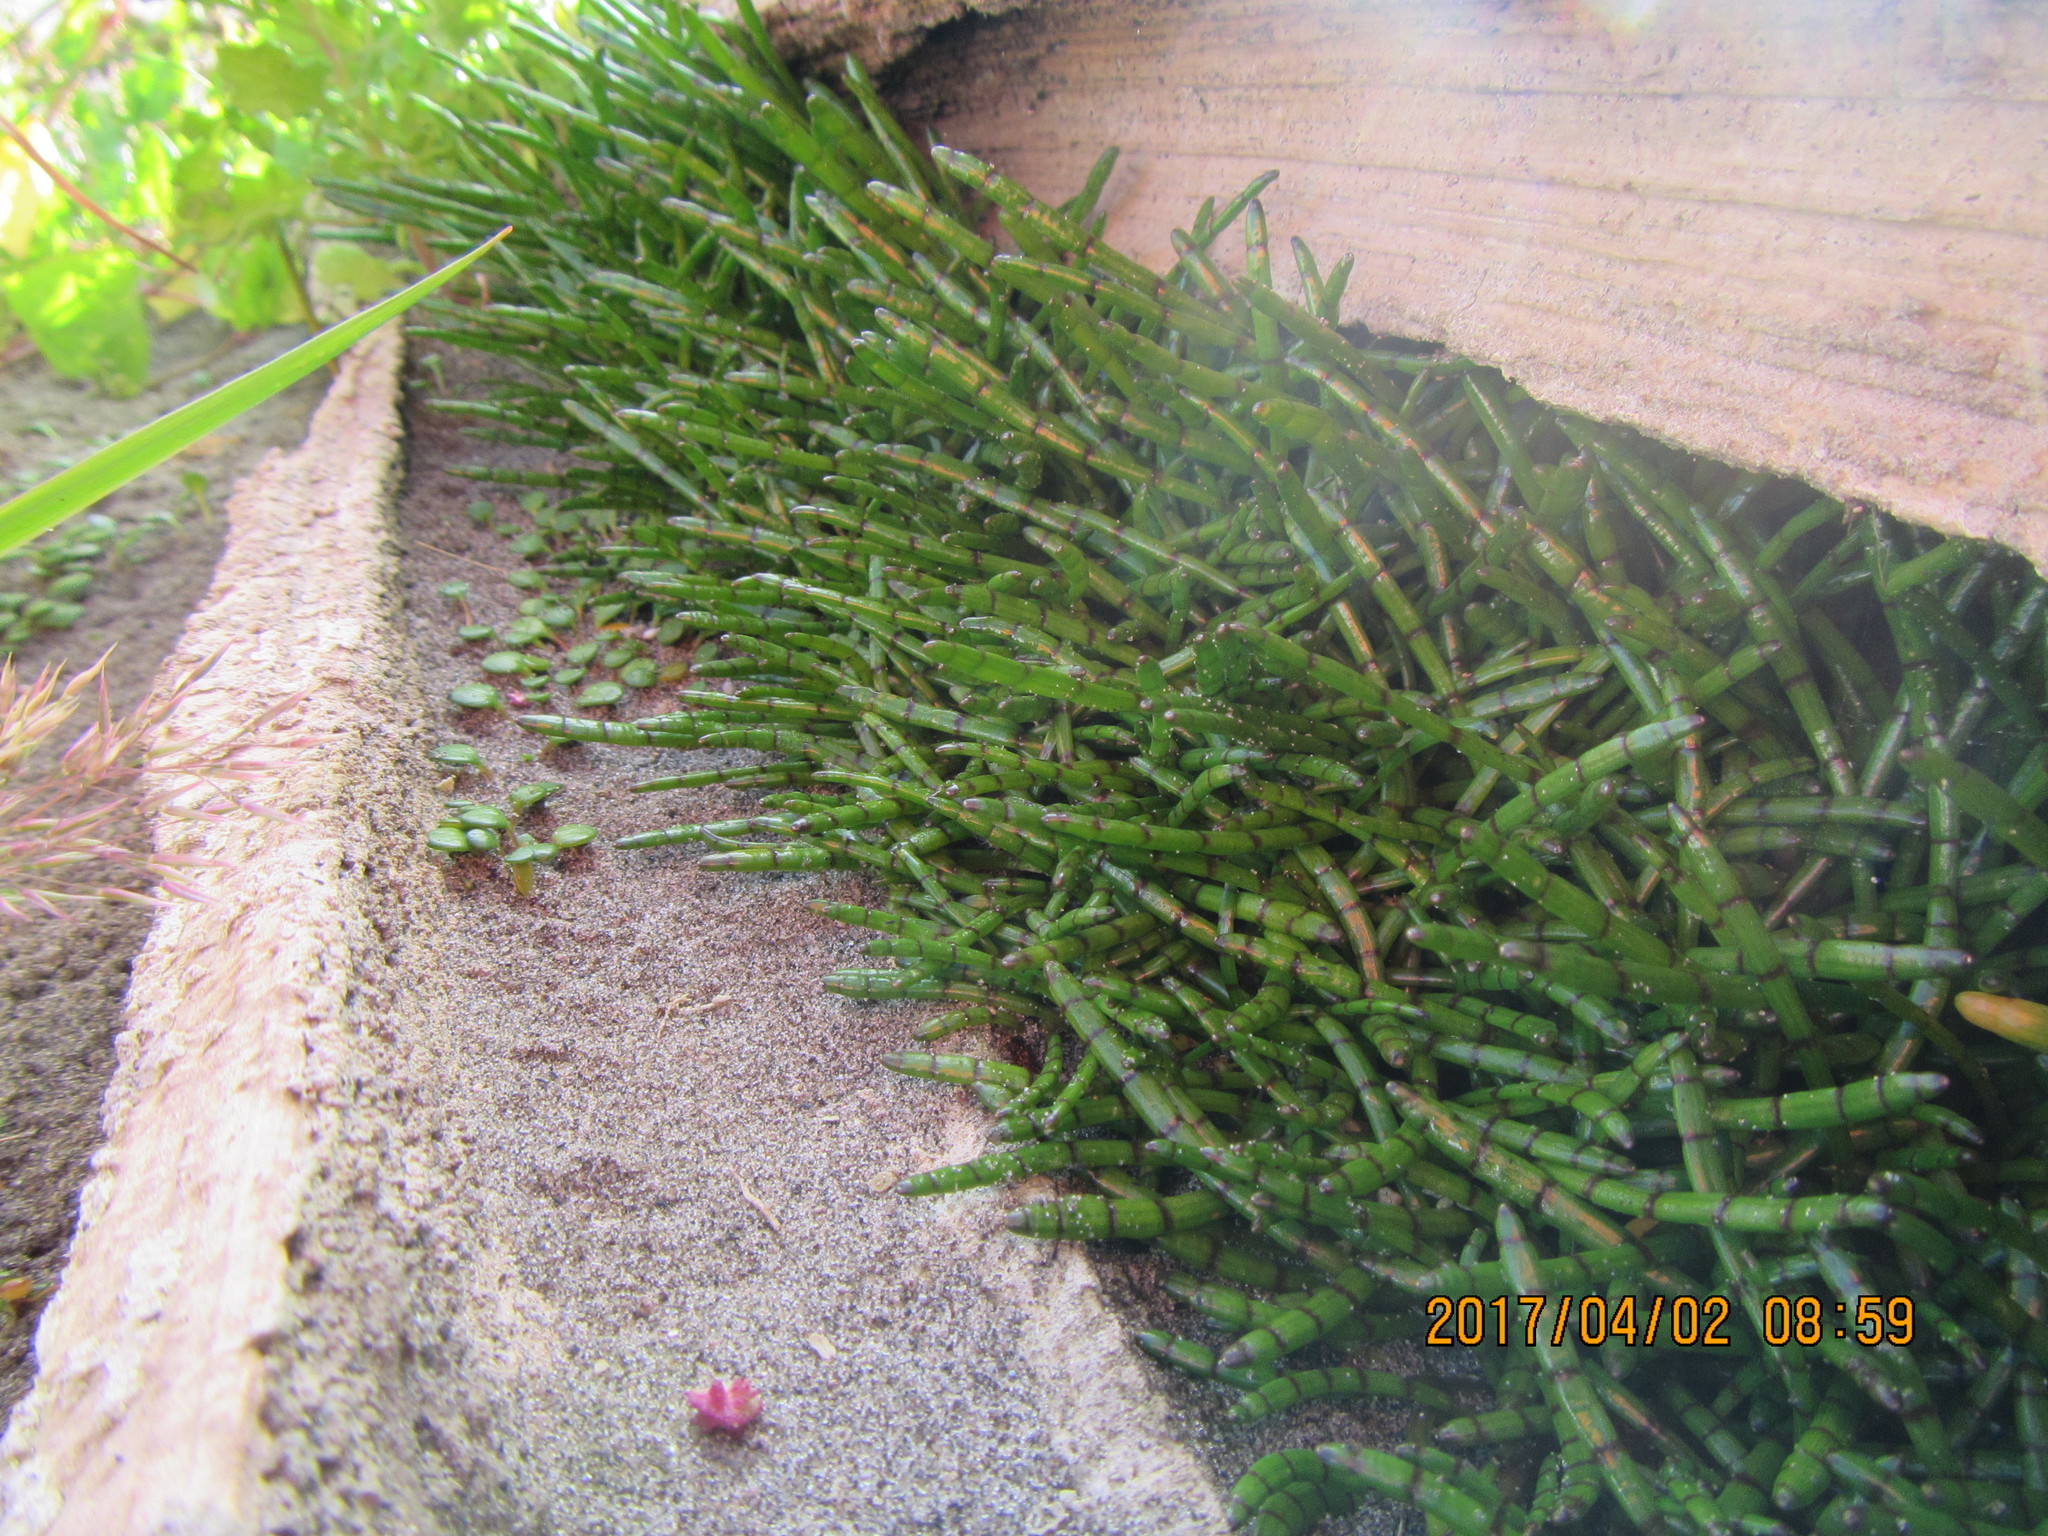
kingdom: Plantae
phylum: Tracheophyta
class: Magnoliopsida
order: Apiales
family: Apiaceae
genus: Lilaeopsis
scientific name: Lilaeopsis novae-zelandiae
